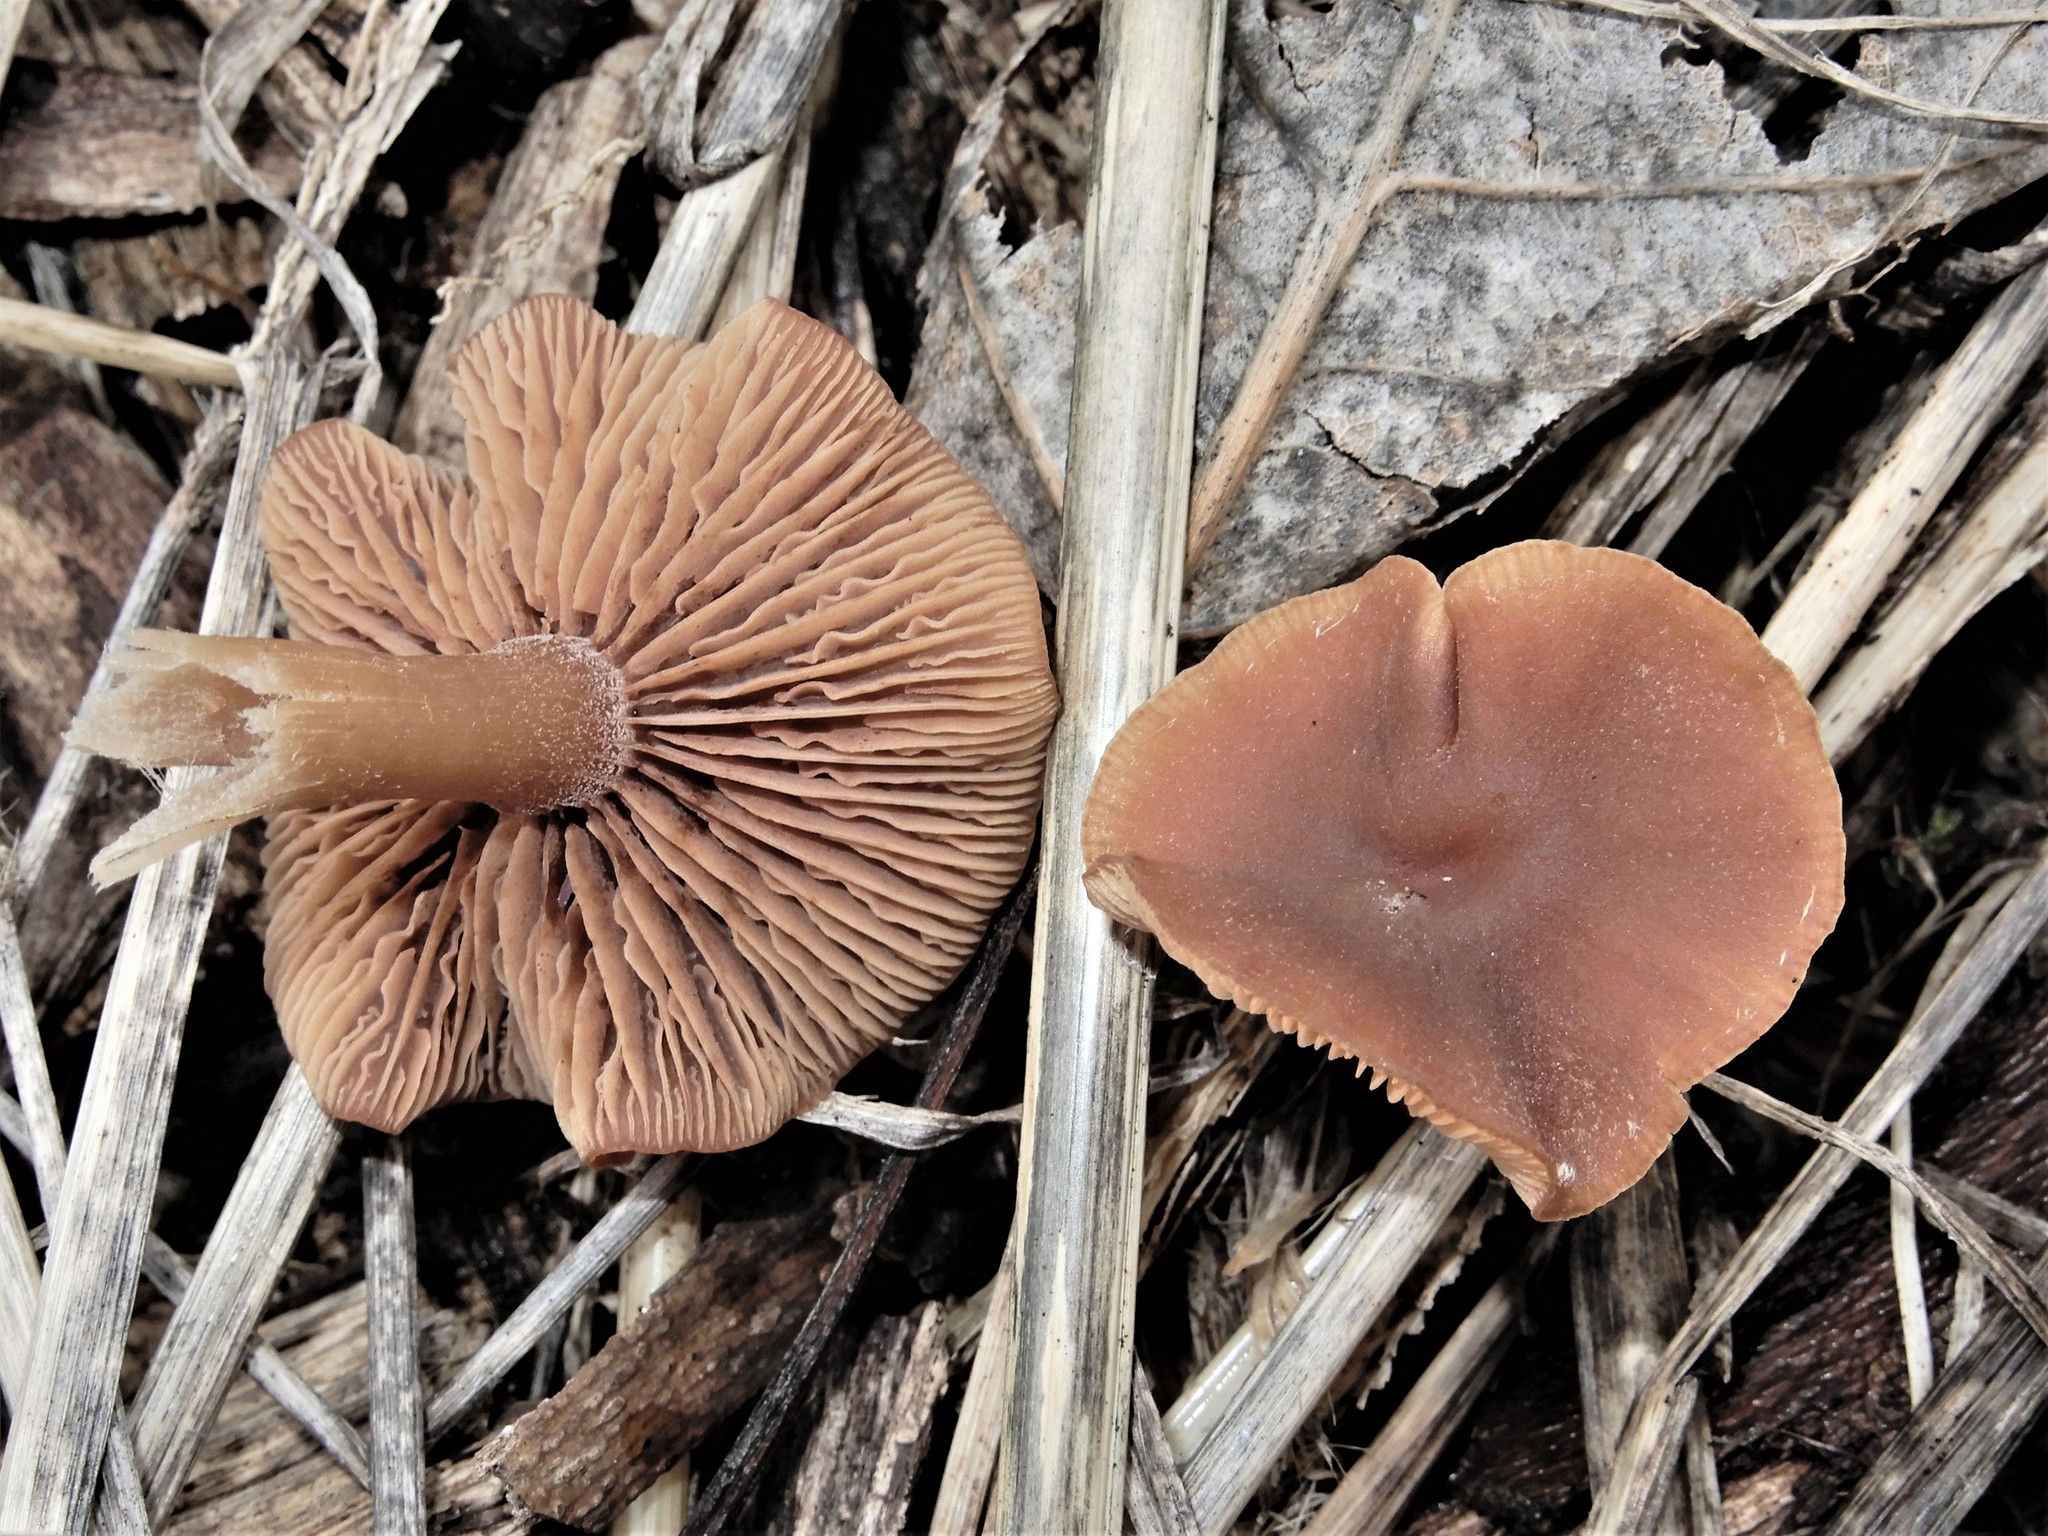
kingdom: Fungi
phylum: Basidiomycota
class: Agaricomycetes
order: Agaricales
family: Tubariaceae
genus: Tubaria
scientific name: Tubaria furfuracea
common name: Scurfy twiglet
